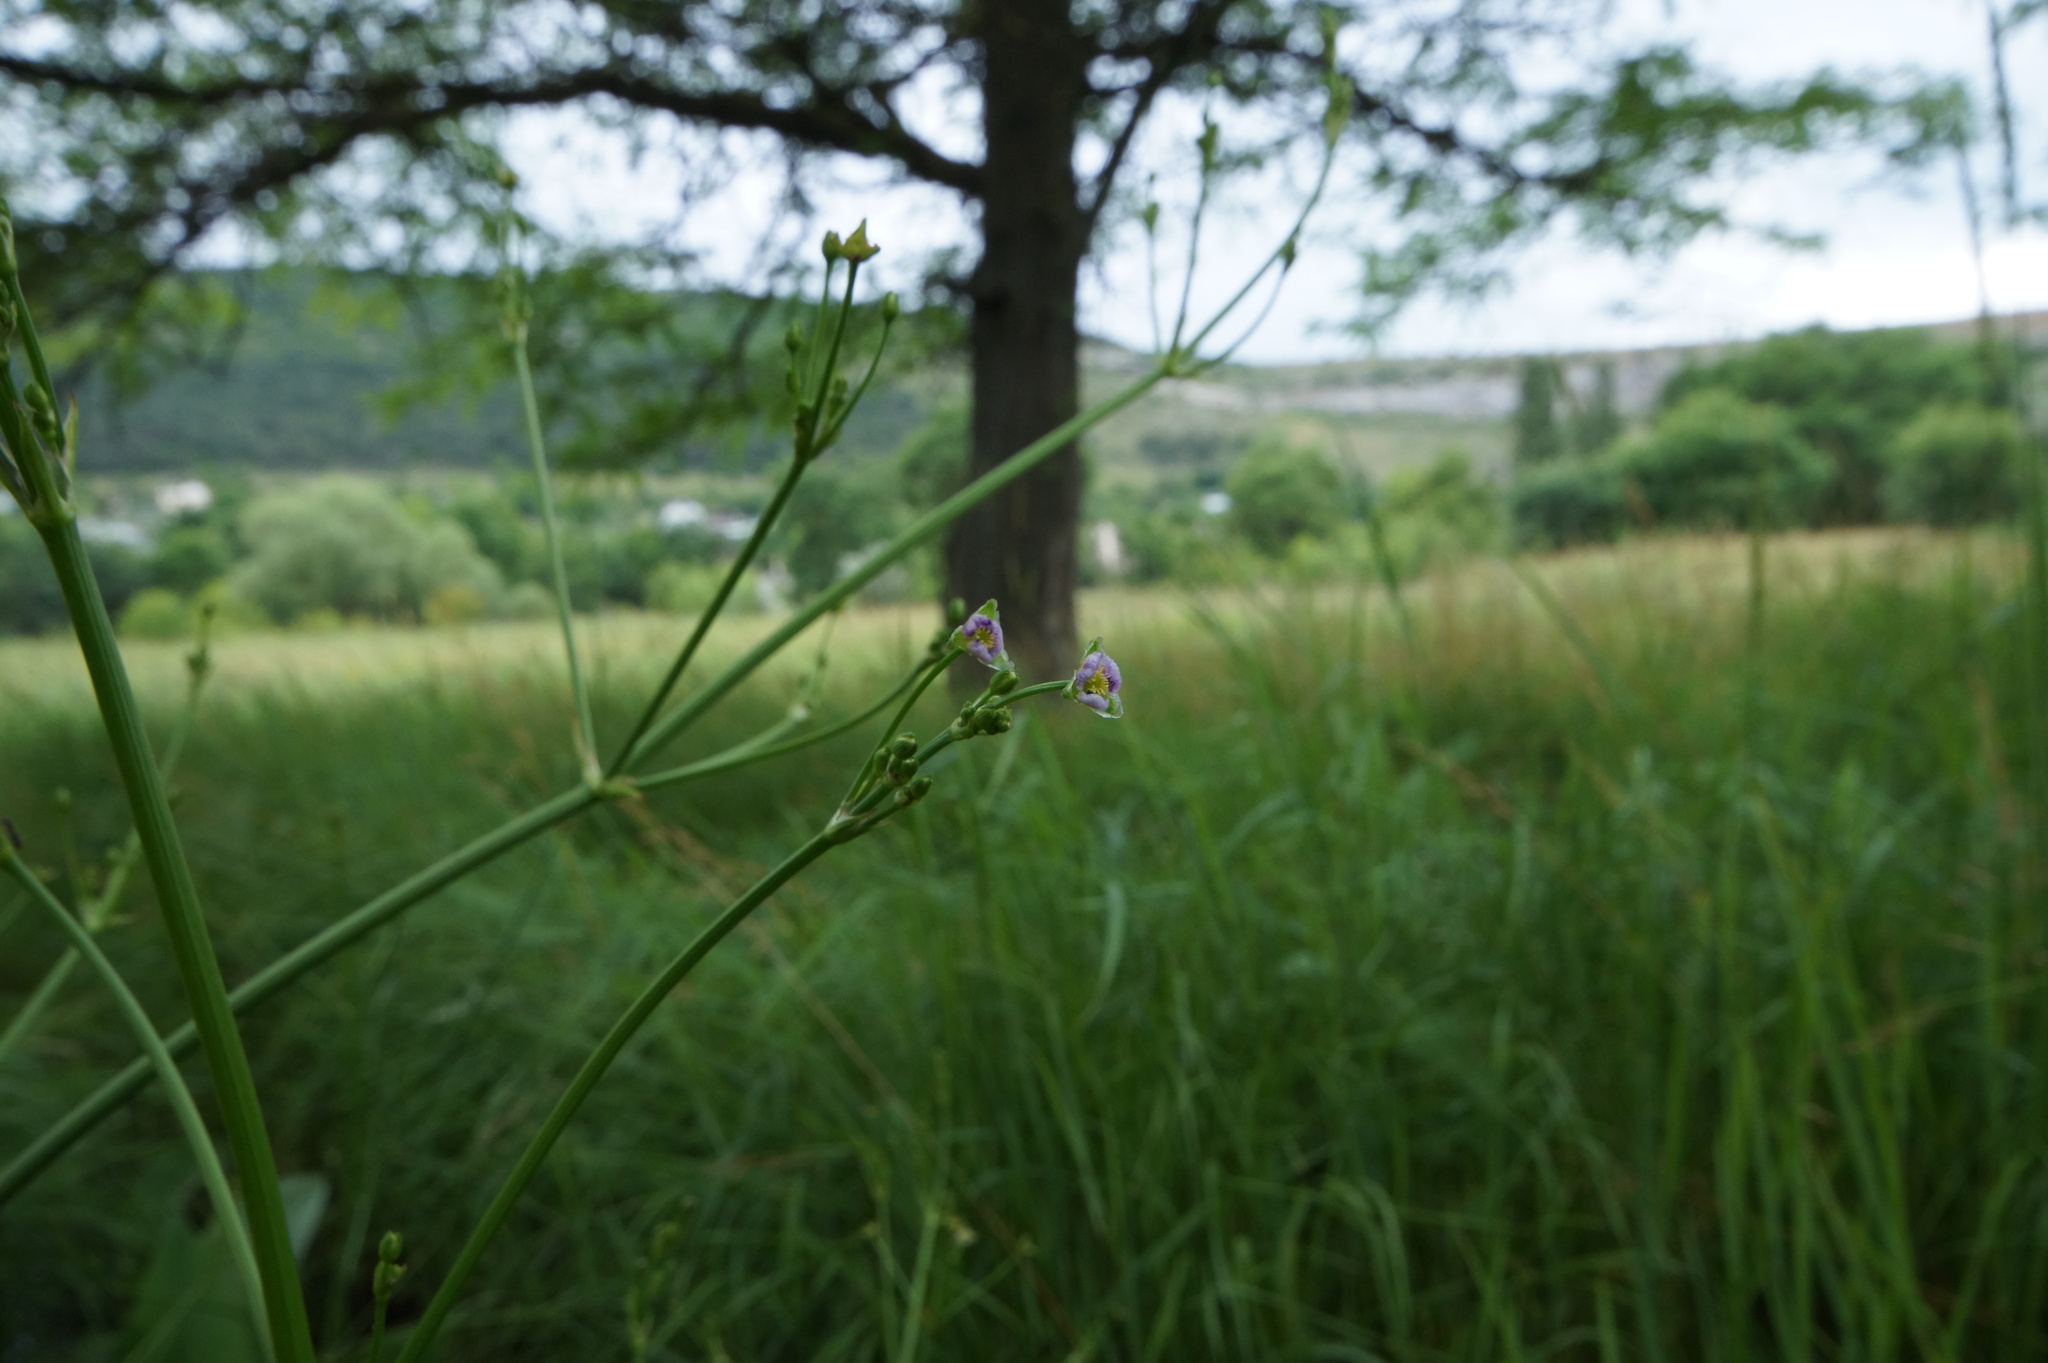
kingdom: Plantae
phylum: Tracheophyta
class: Liliopsida
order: Alismatales
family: Alismataceae
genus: Alisma
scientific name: Alisma lanceolatum
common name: Narrow-leaved water-plantain
